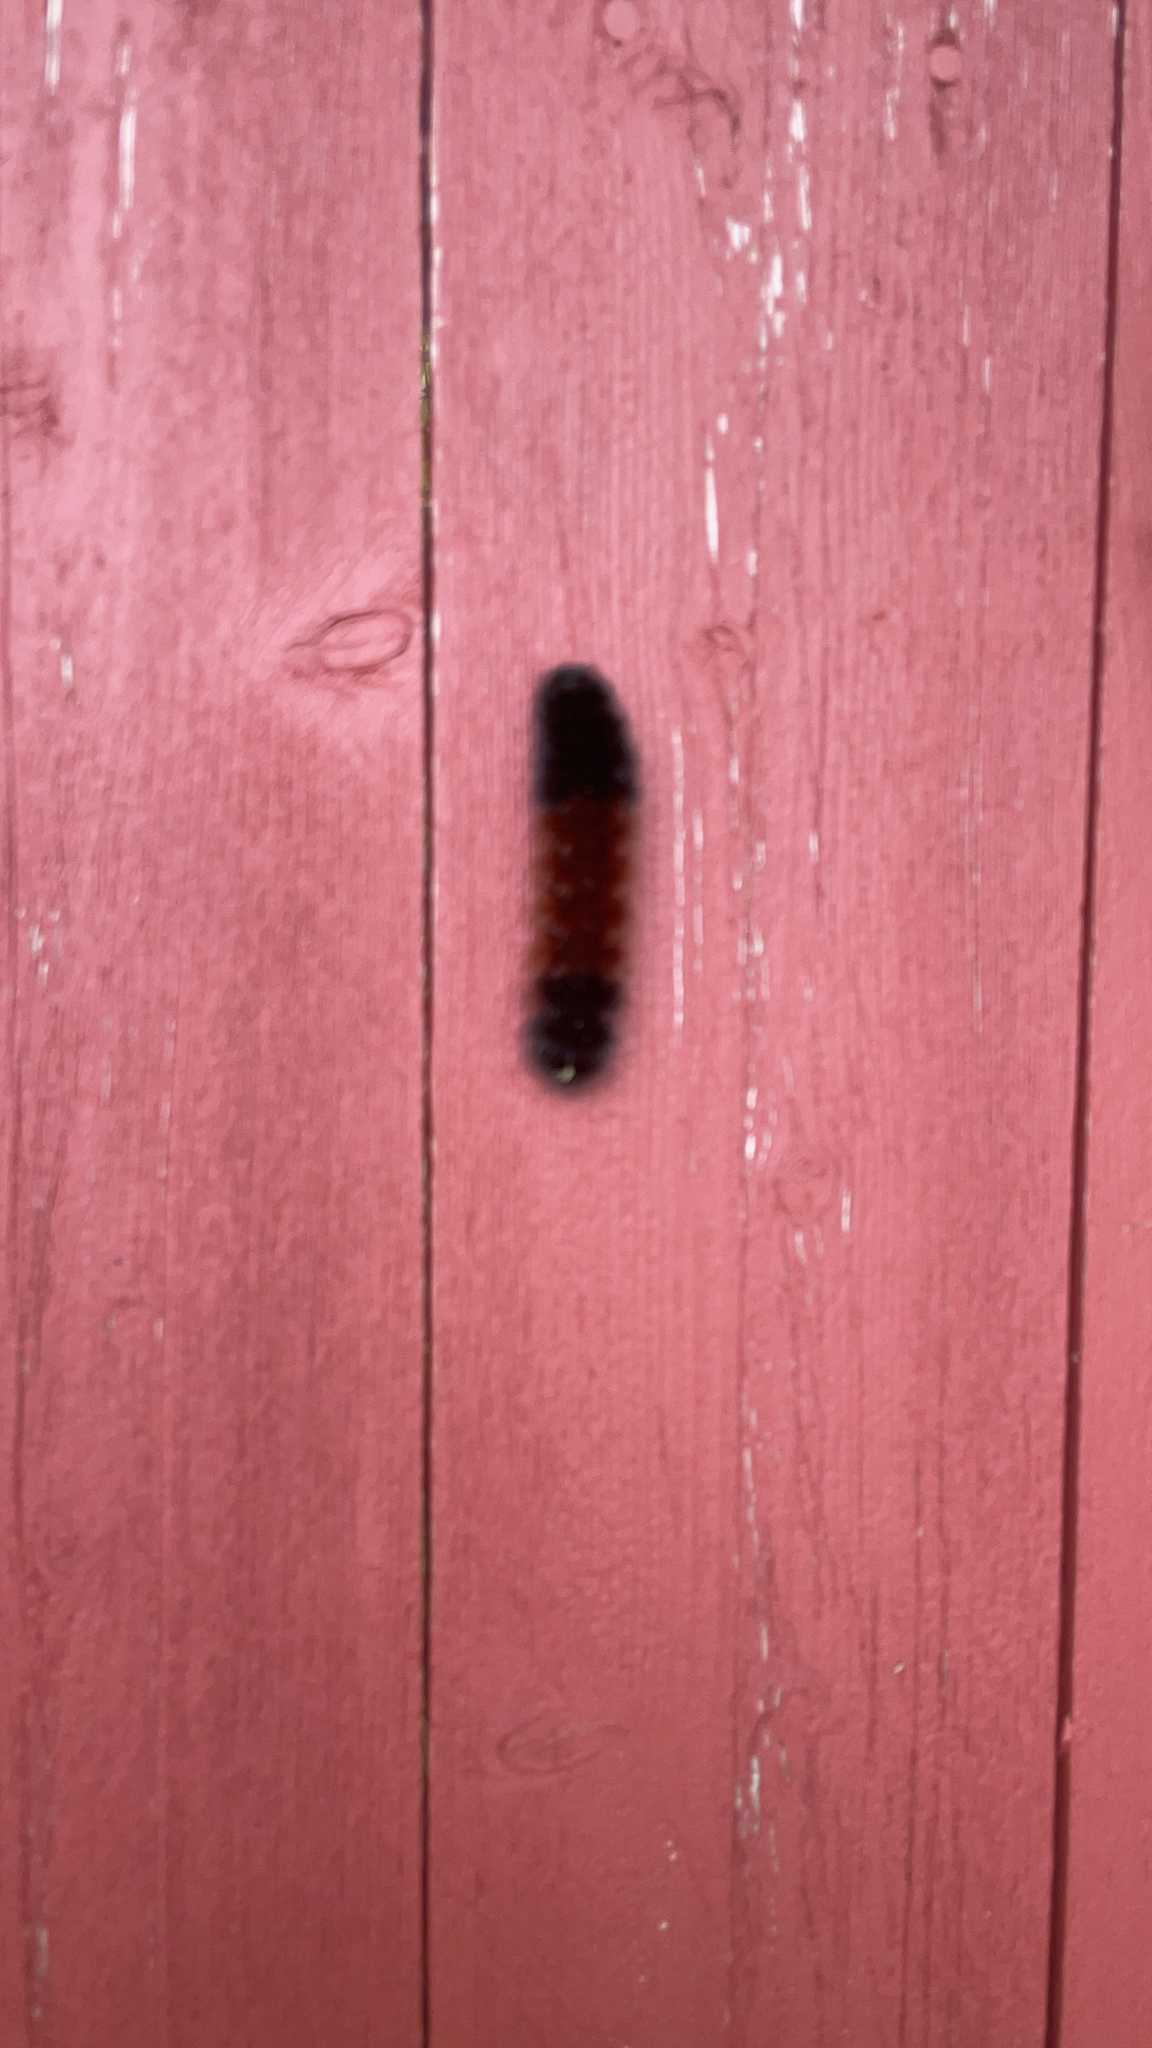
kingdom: Animalia
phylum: Arthropoda
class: Insecta
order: Lepidoptera
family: Erebidae
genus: Pyrrharctia
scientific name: Pyrrharctia isabella
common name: Isabella tiger moth
